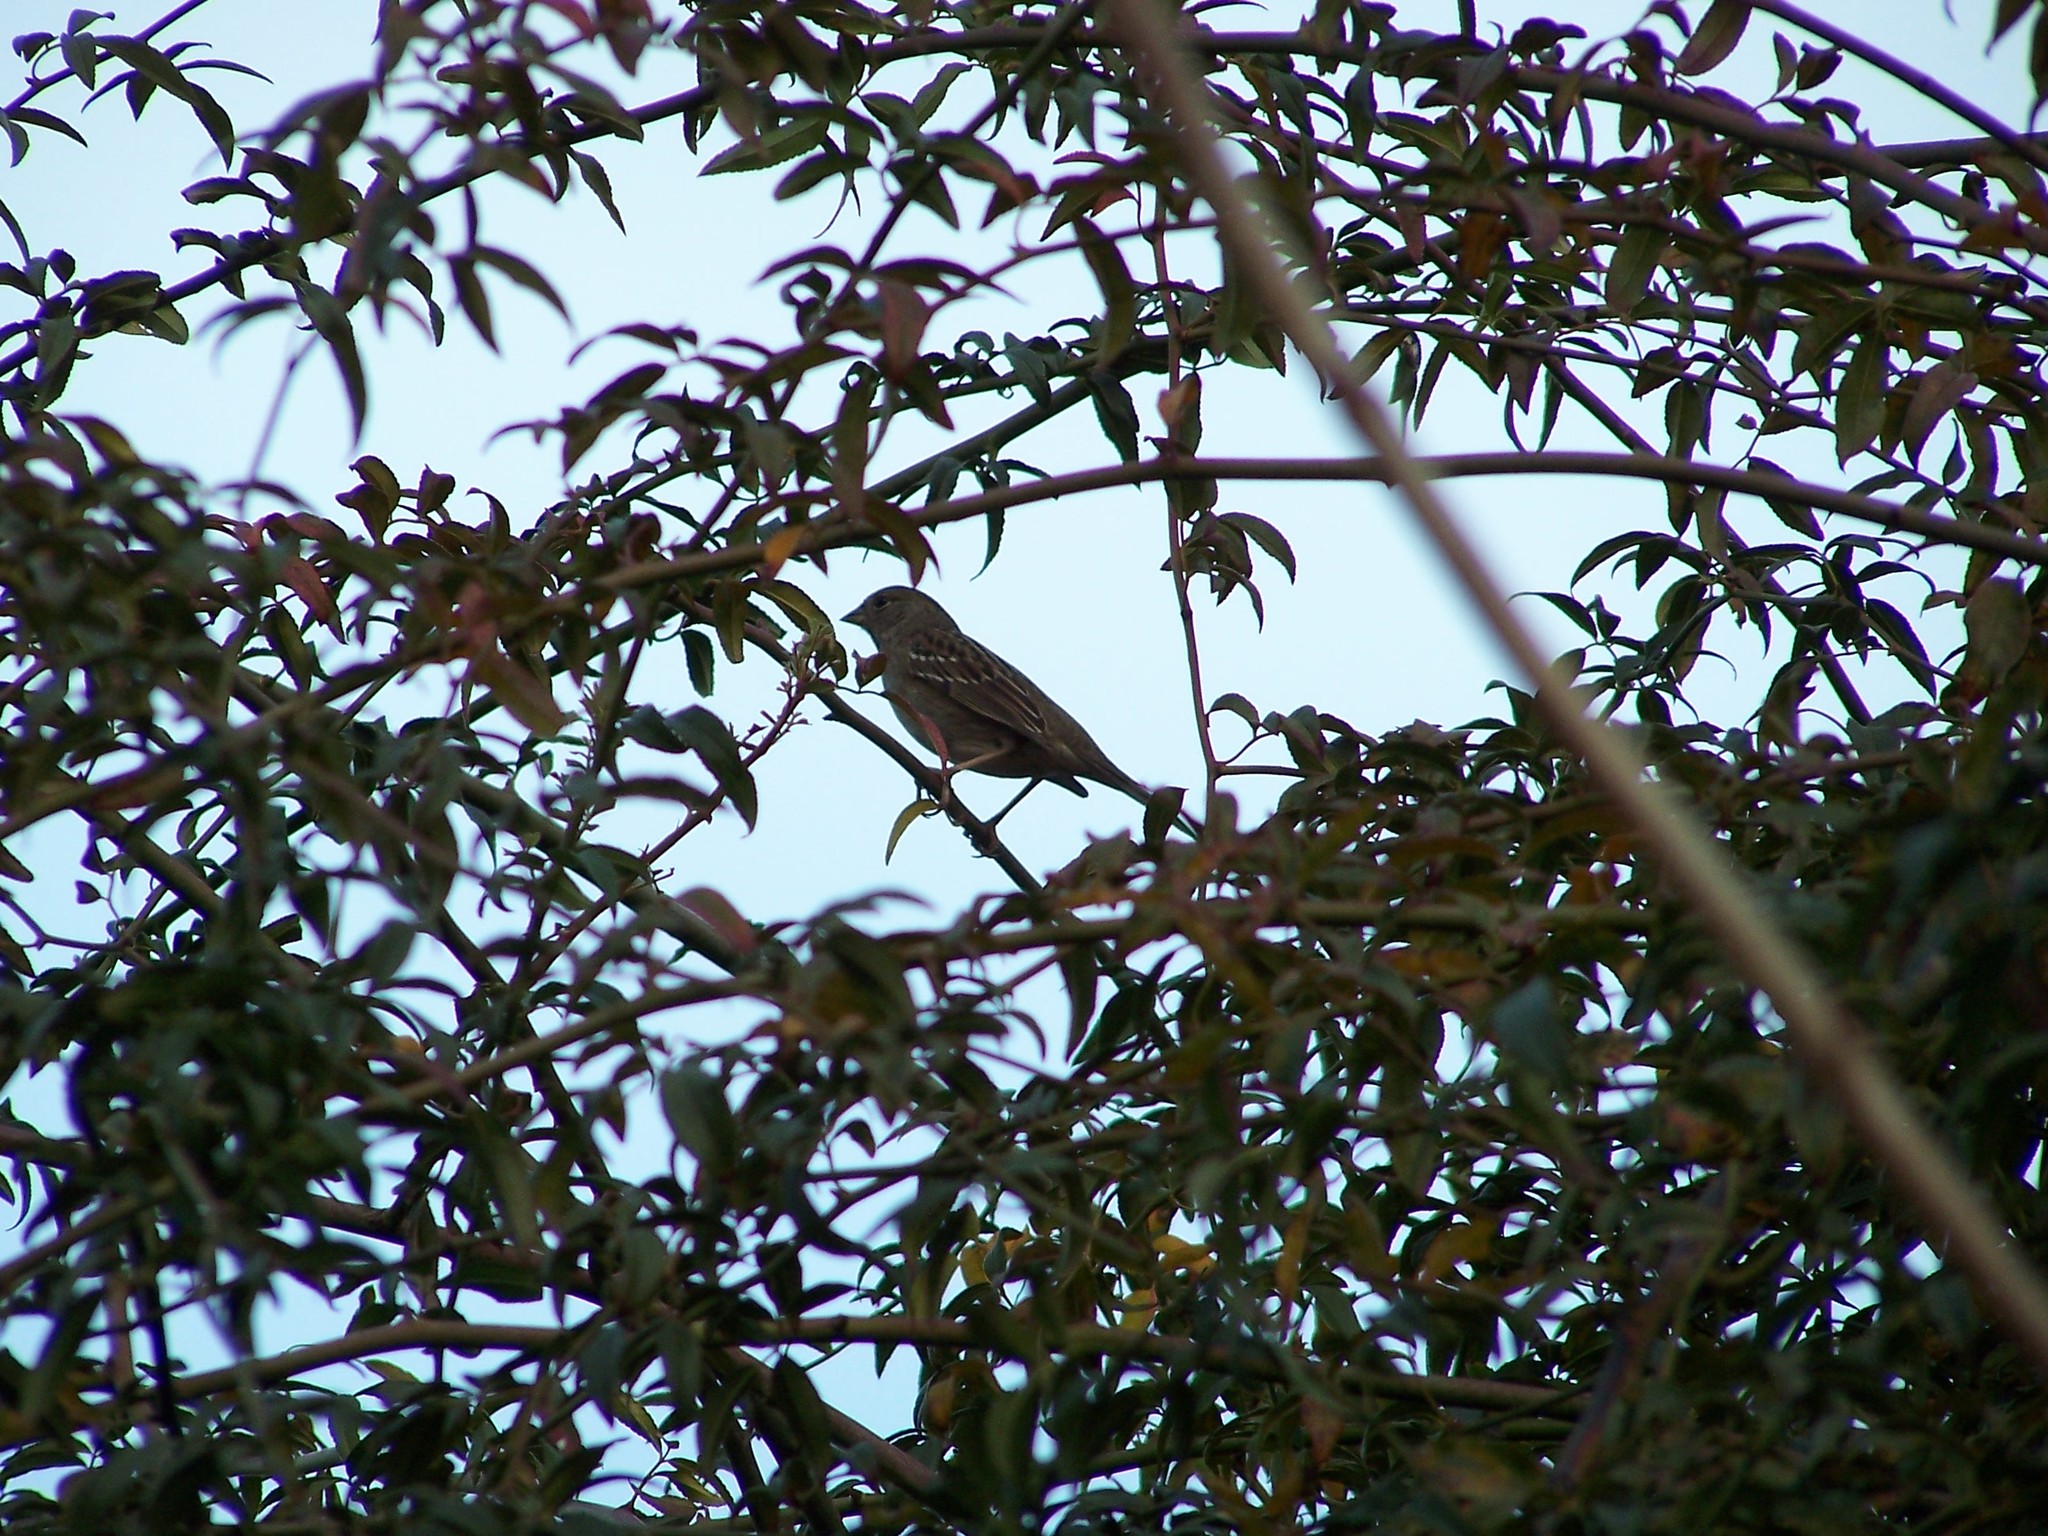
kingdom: Animalia
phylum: Chordata
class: Aves
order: Passeriformes
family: Passerellidae
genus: Zonotrichia
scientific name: Zonotrichia atricapilla
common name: Golden-crowned sparrow
